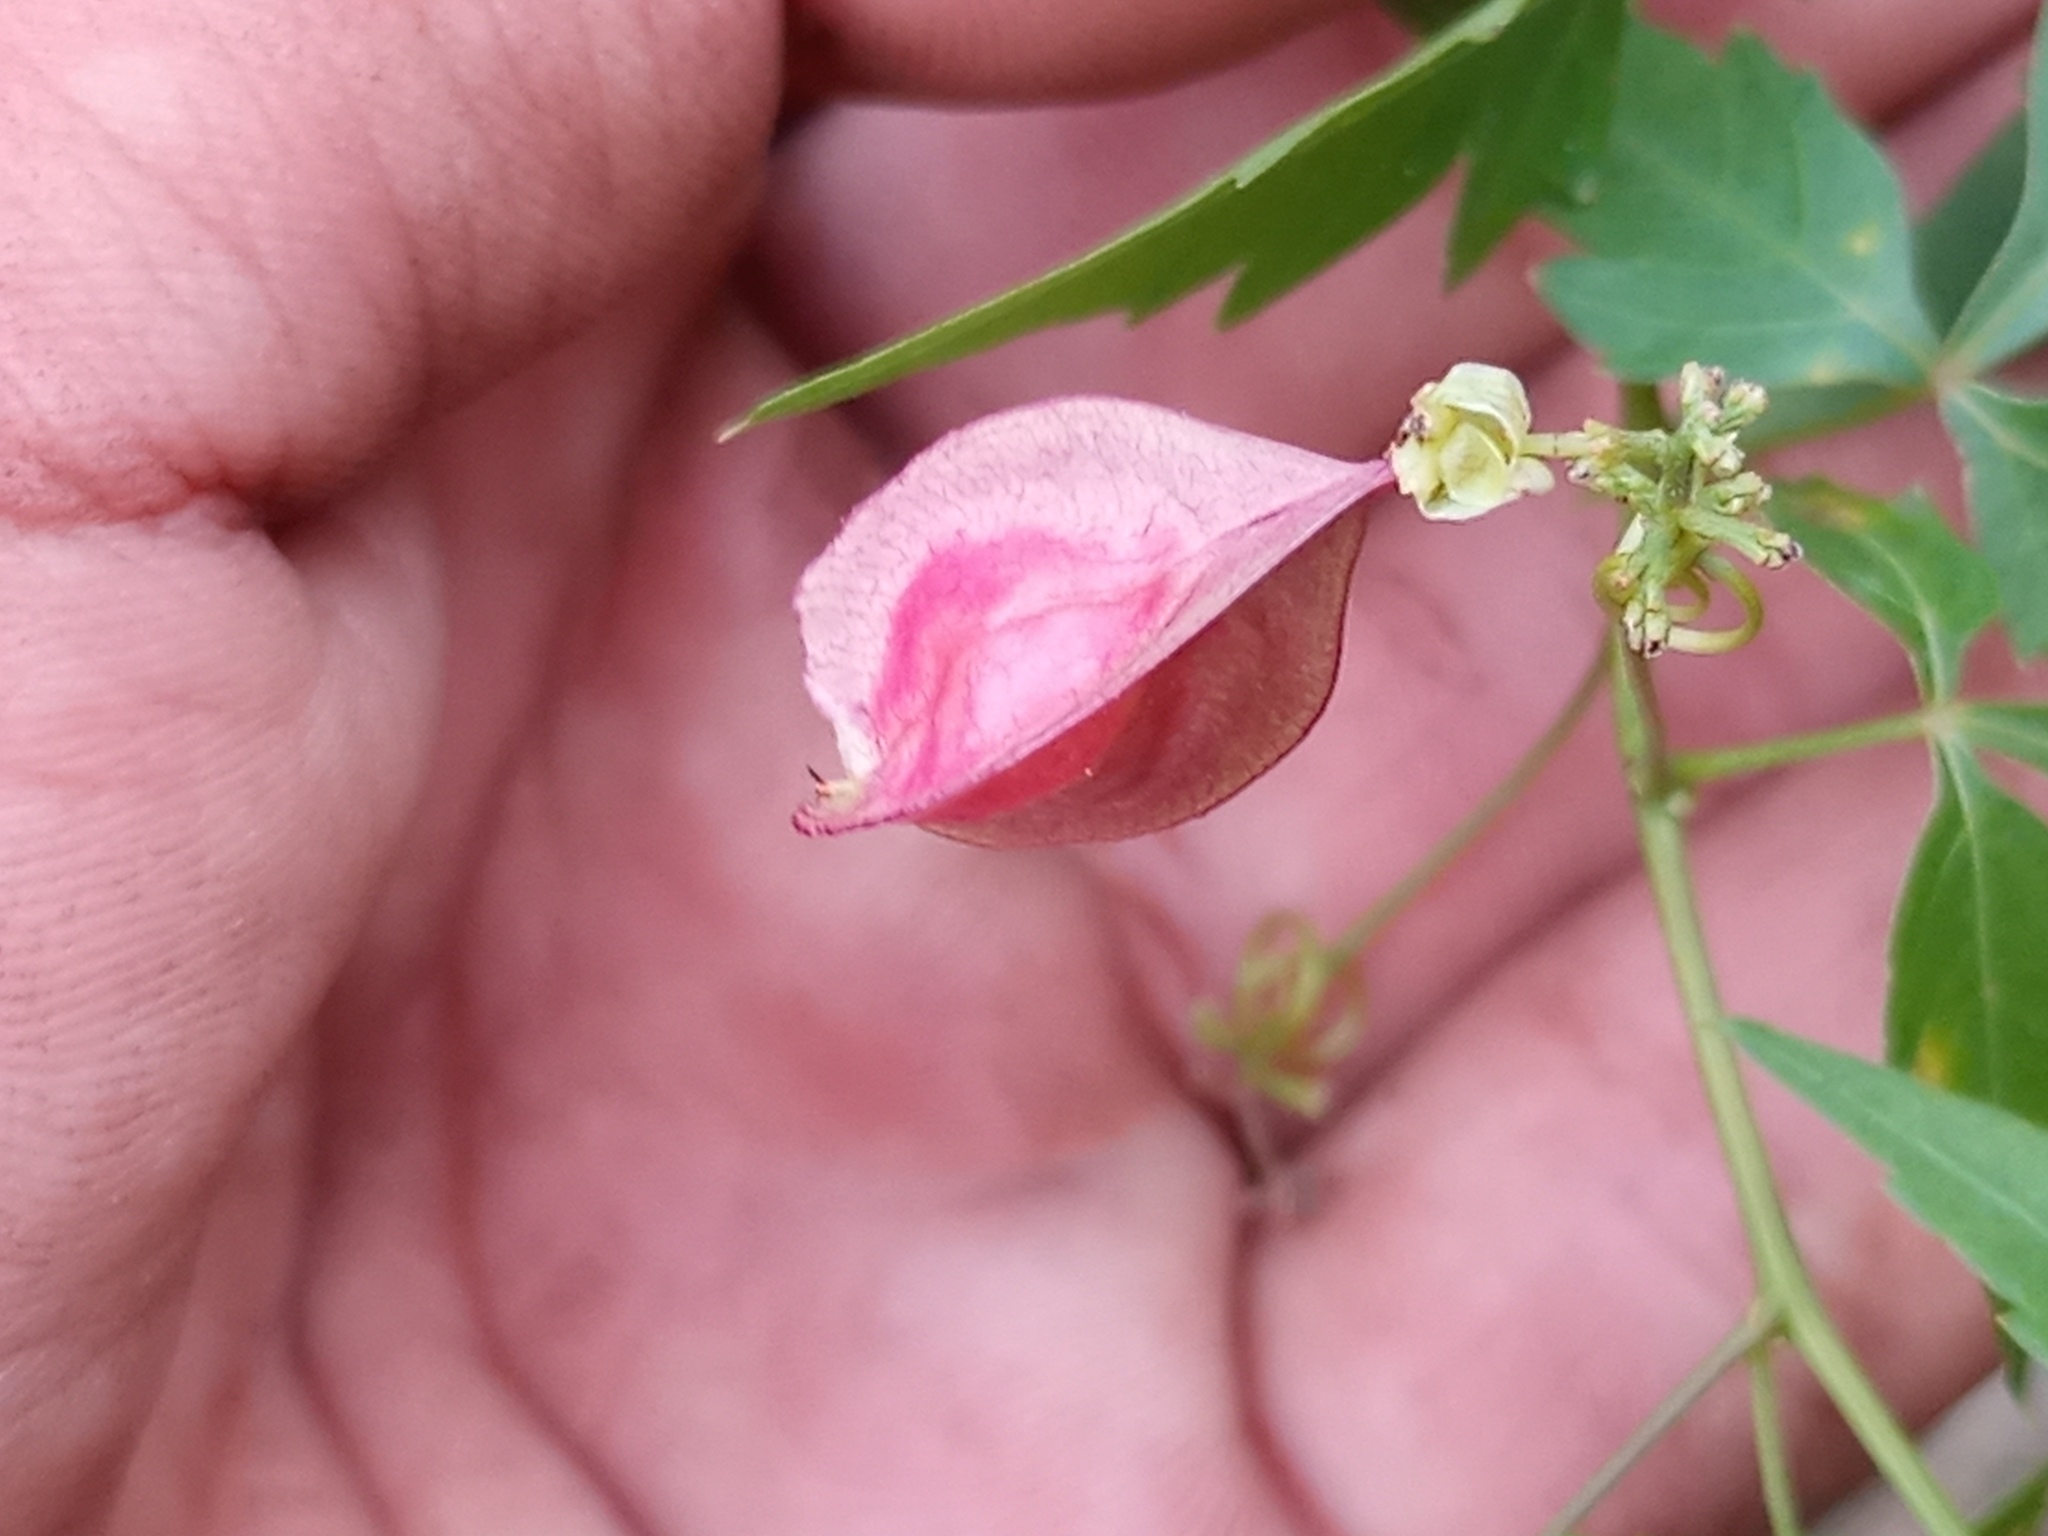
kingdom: Plantae
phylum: Tracheophyta
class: Magnoliopsida
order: Sapindales
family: Sapindaceae
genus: Urvillea
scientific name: Urvillea uniloba
